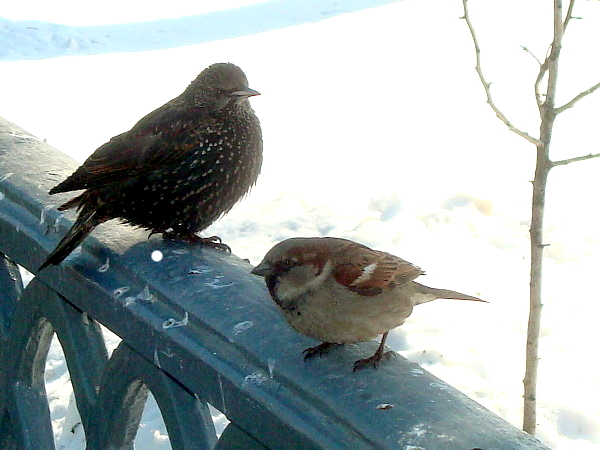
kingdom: Animalia
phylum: Chordata
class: Aves
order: Passeriformes
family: Sturnidae
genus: Sturnus
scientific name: Sturnus vulgaris
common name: Common starling
